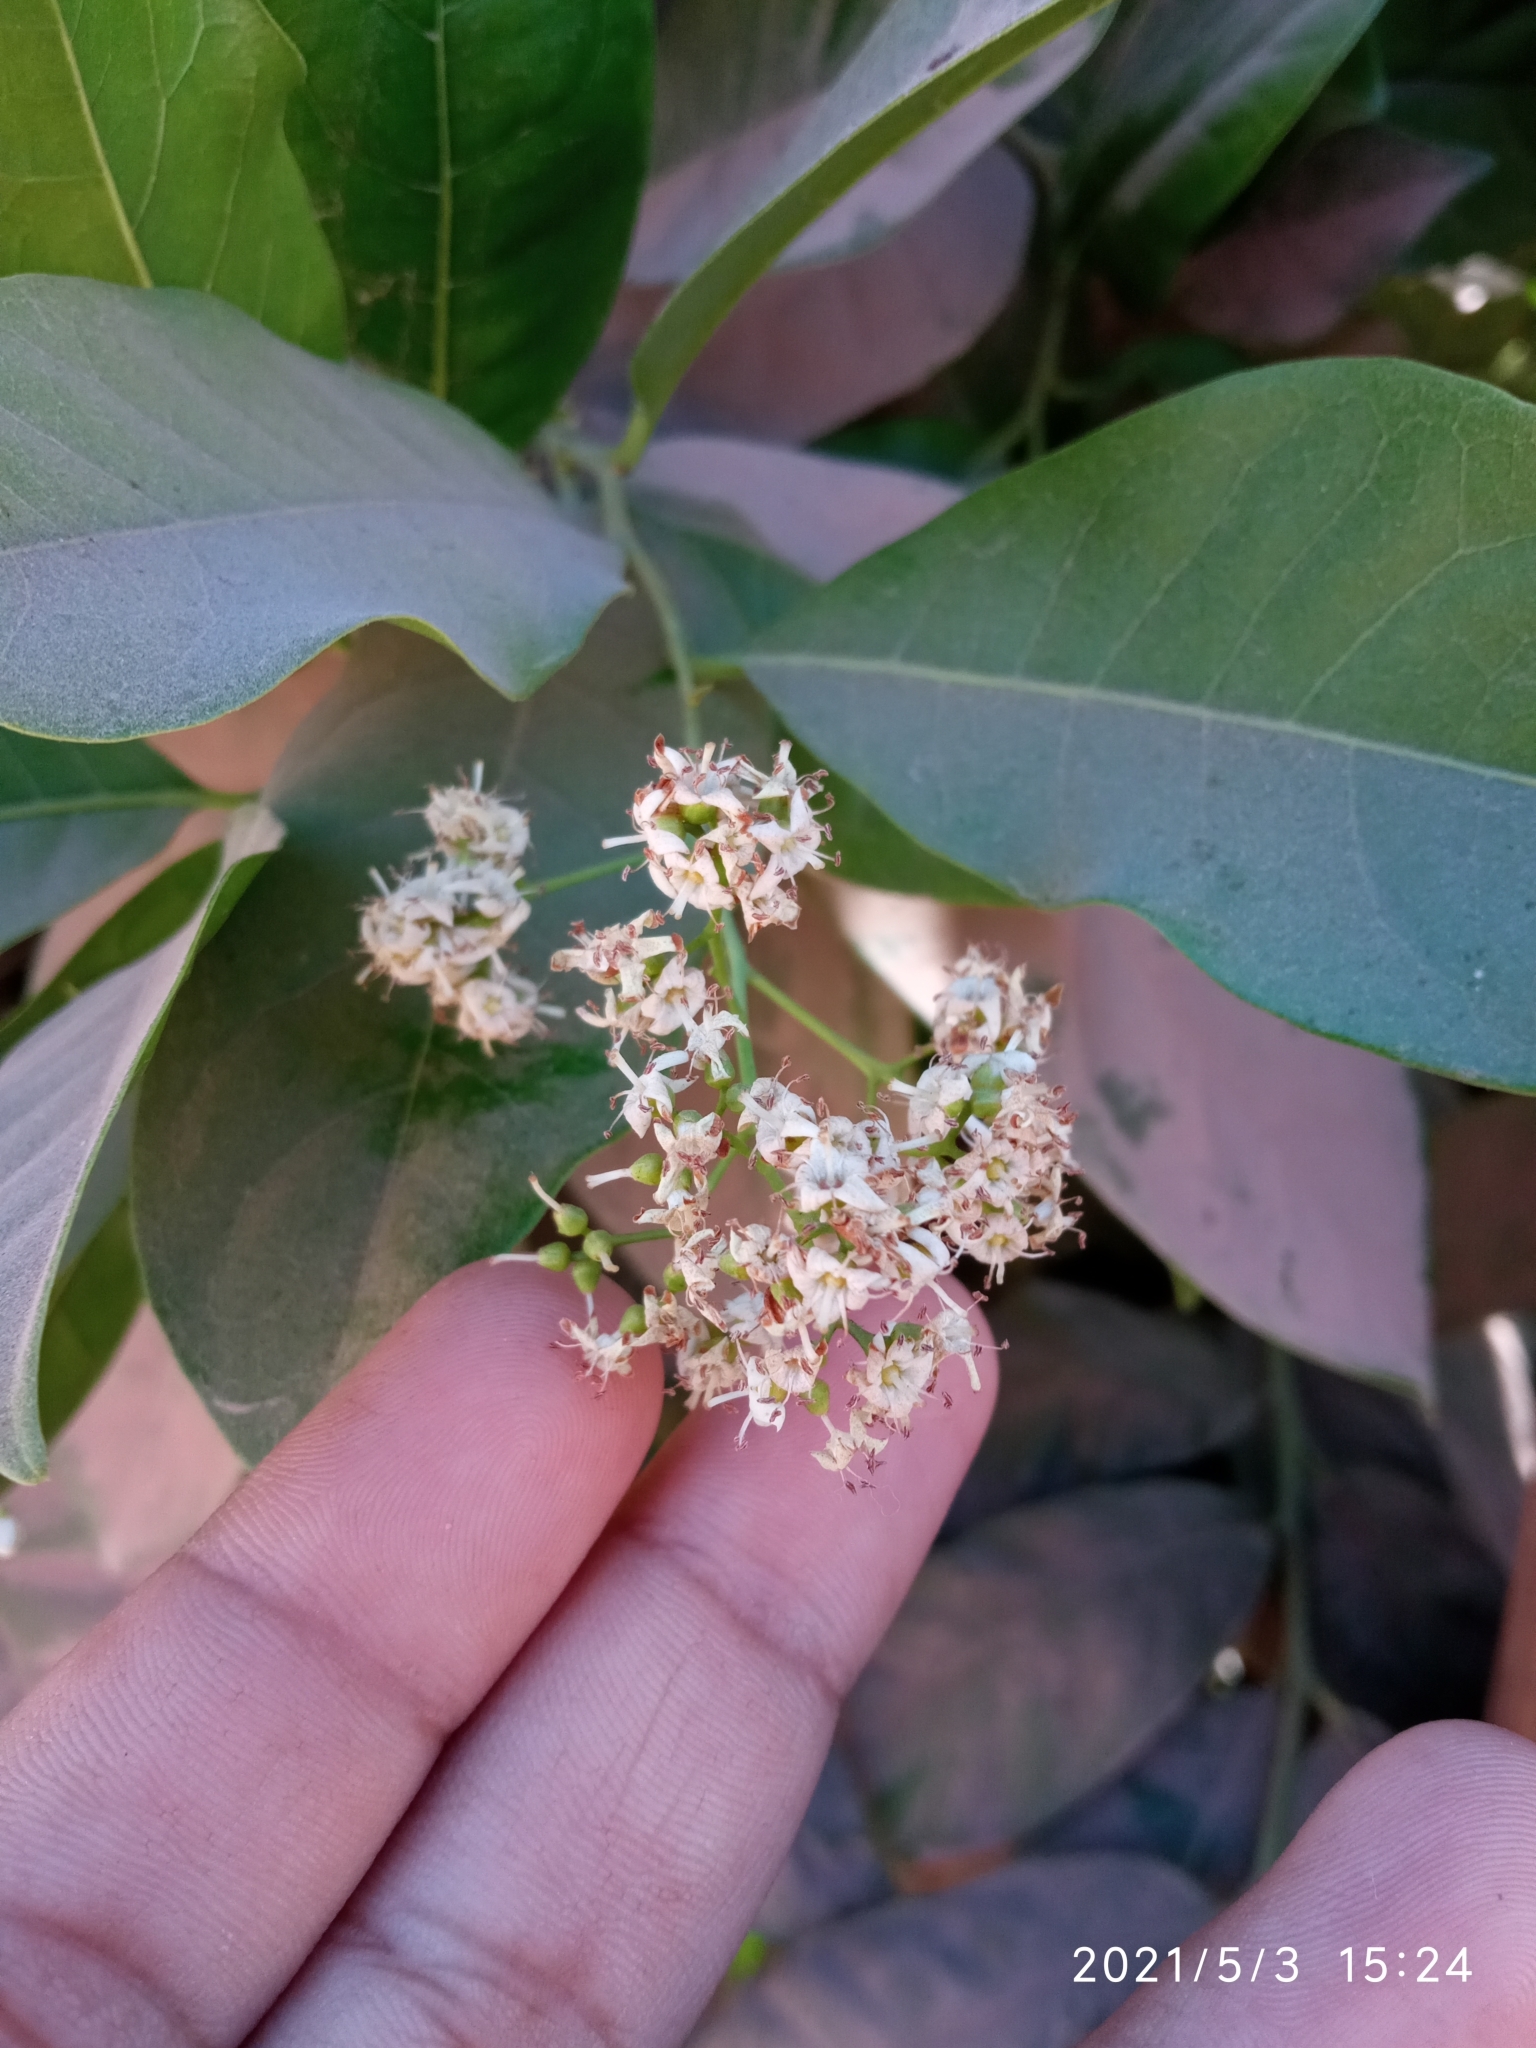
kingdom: Plantae
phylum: Tracheophyta
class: Magnoliopsida
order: Boraginales
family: Ehretiaceae
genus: Ehretia
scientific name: Ehretia tinifolia
